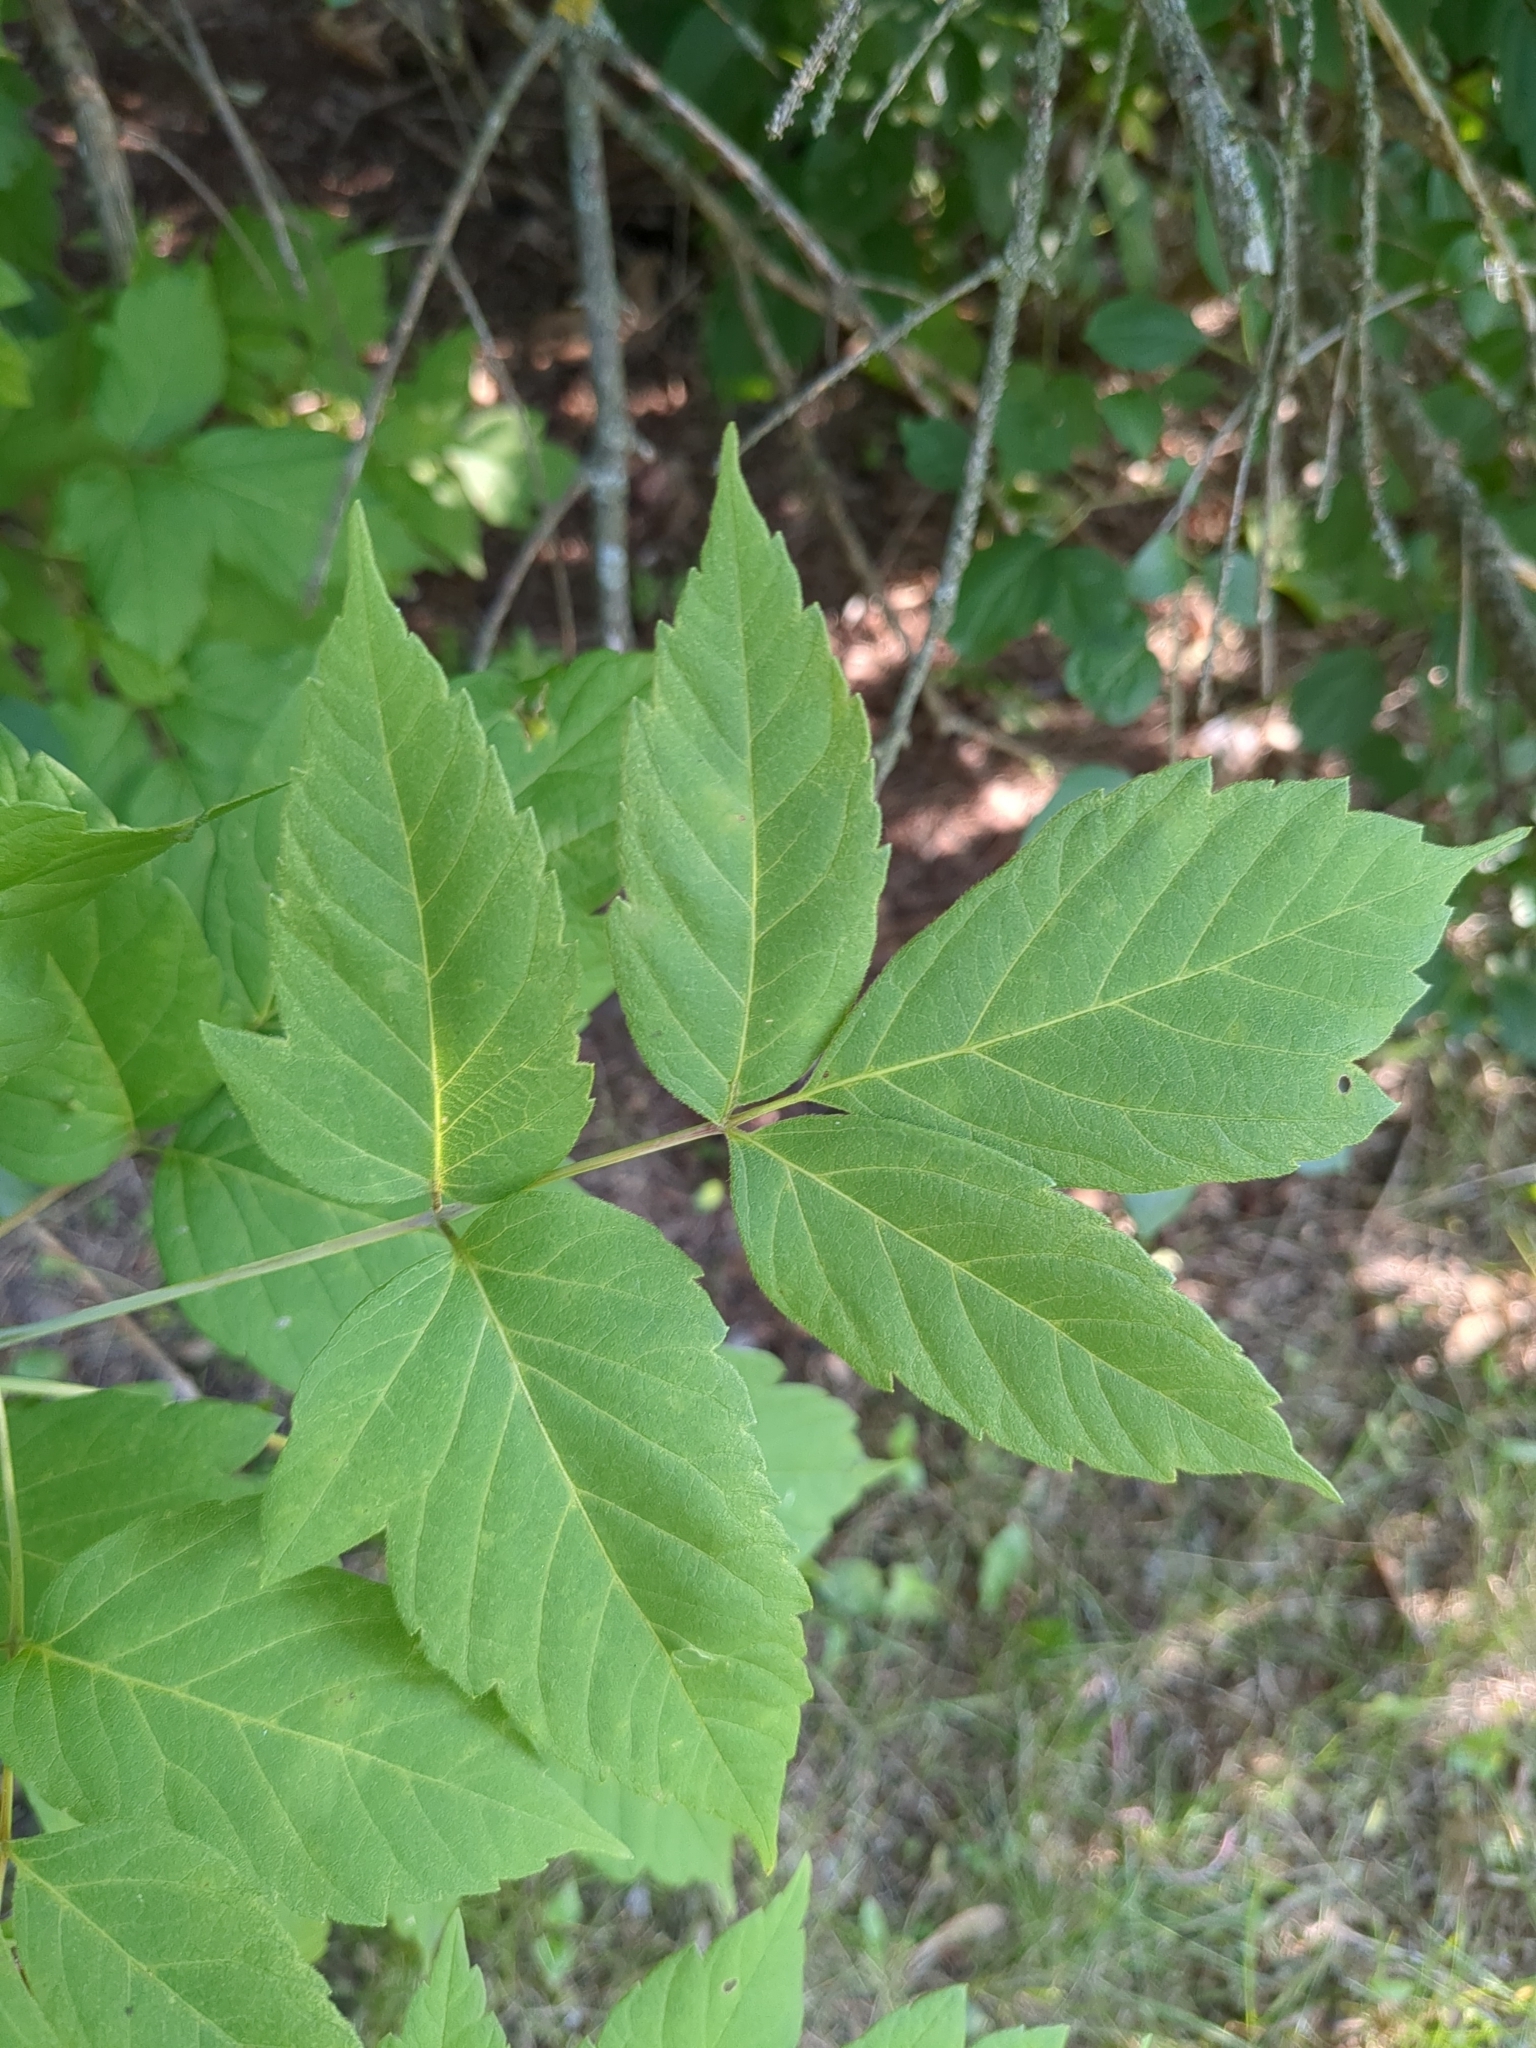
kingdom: Plantae
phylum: Tracheophyta
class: Magnoliopsida
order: Sapindales
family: Sapindaceae
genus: Acer
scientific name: Acer negundo
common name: Ashleaf maple
